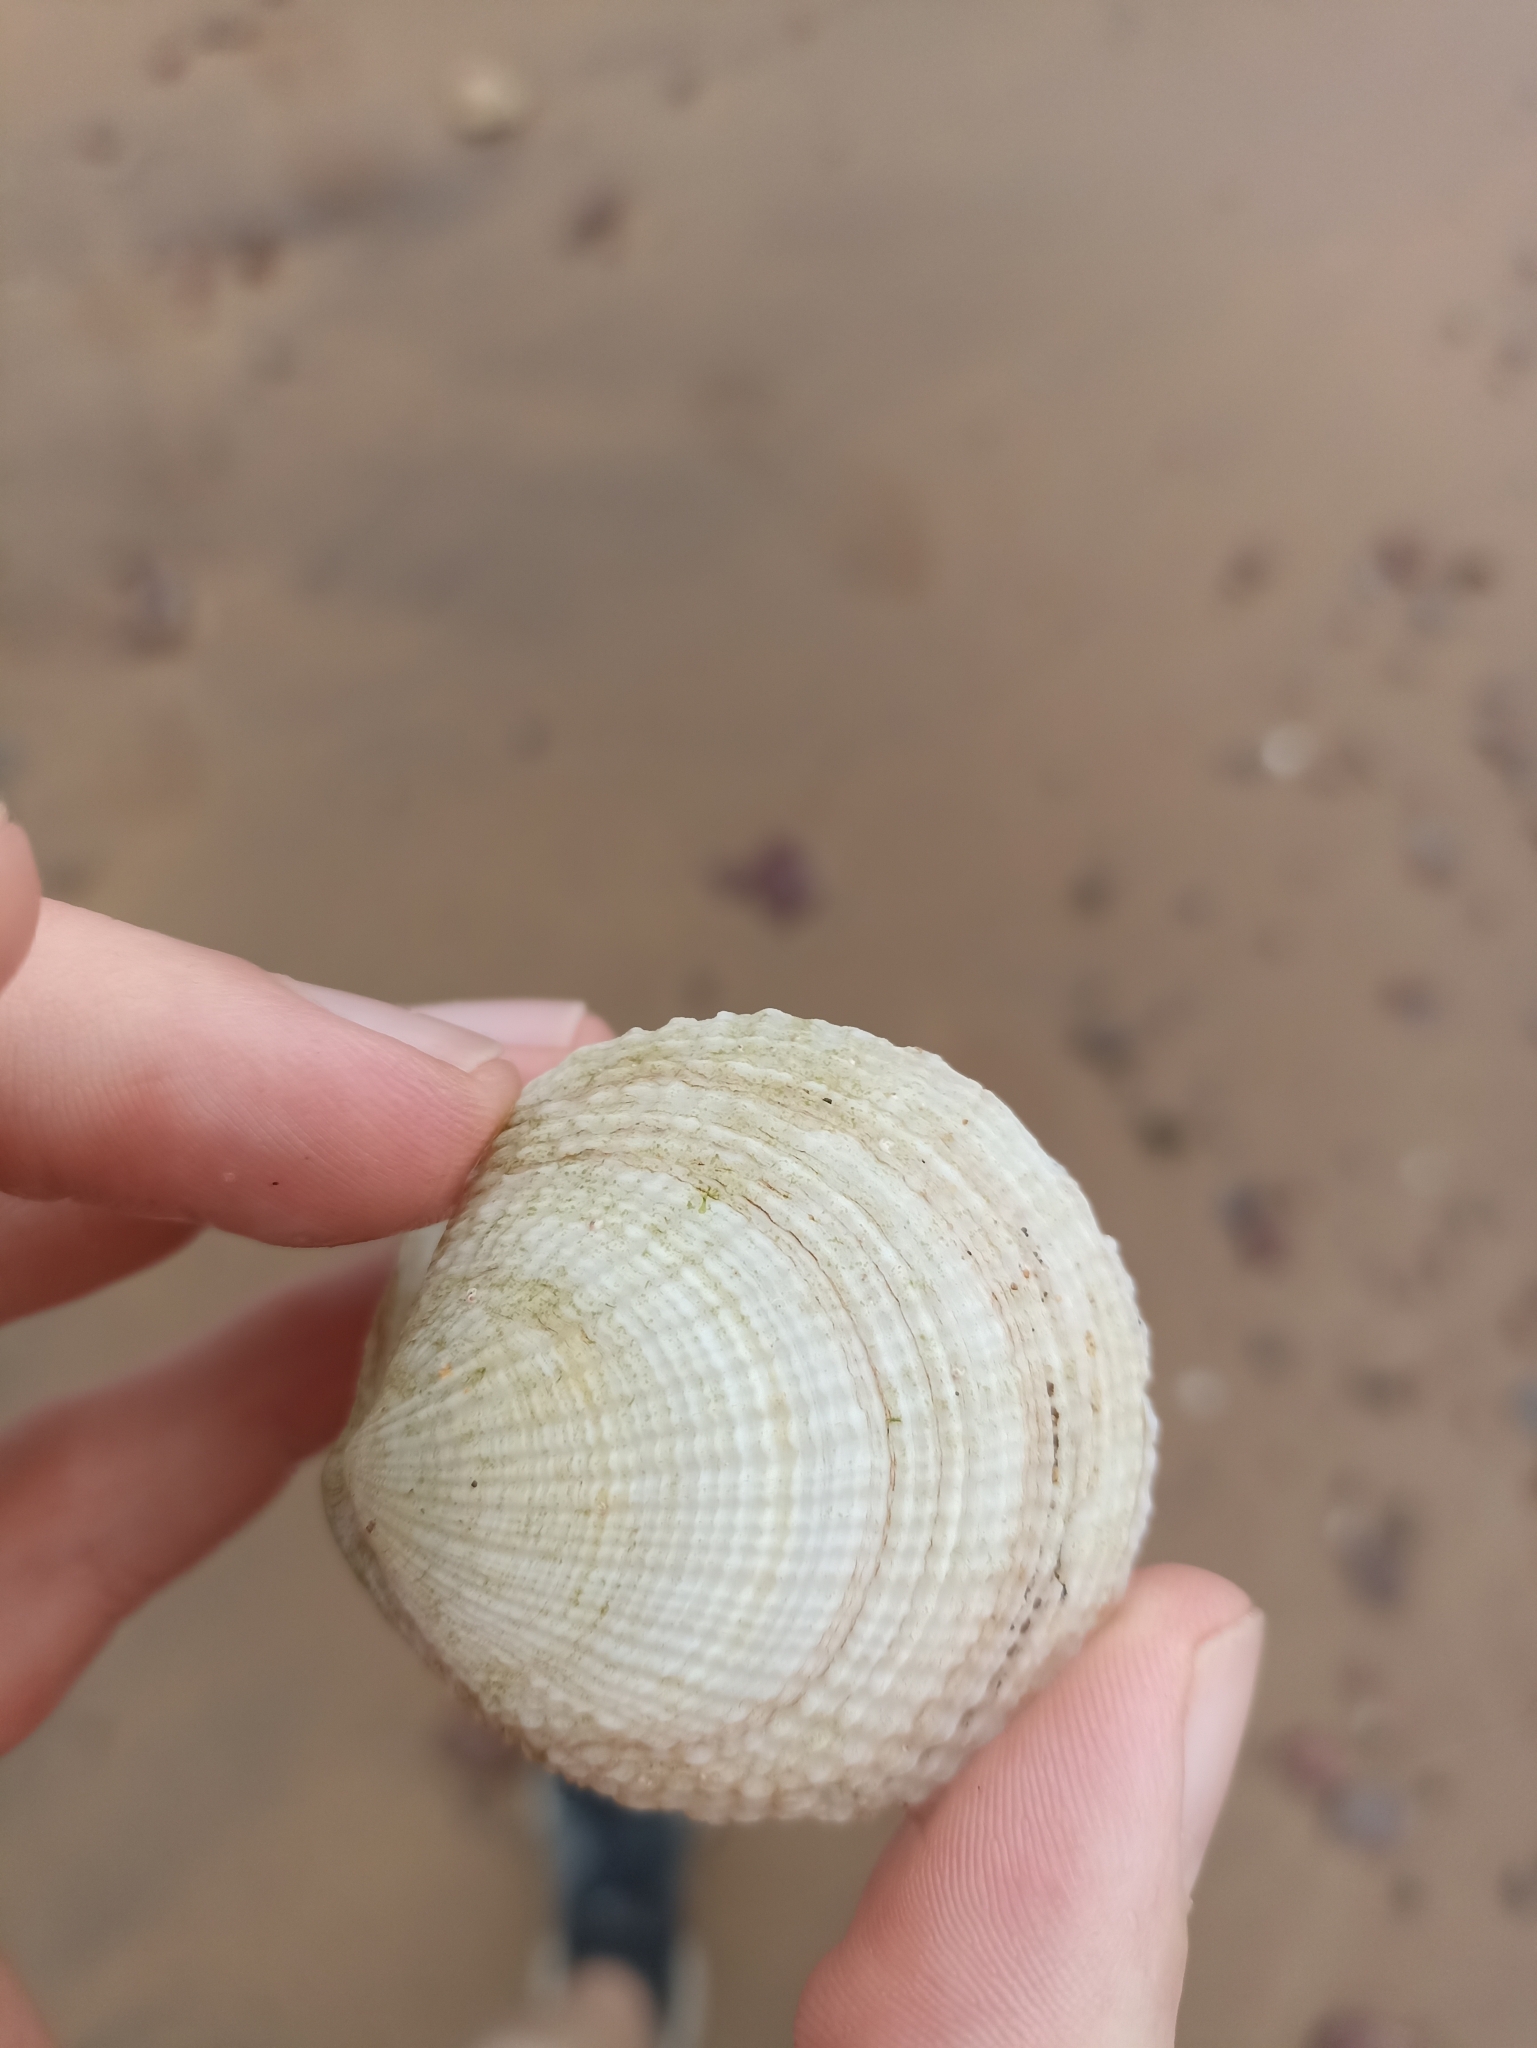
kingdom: Animalia
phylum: Mollusca
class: Bivalvia
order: Lucinida
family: Lucinidae
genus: Codakia
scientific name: Codakia rugifera
